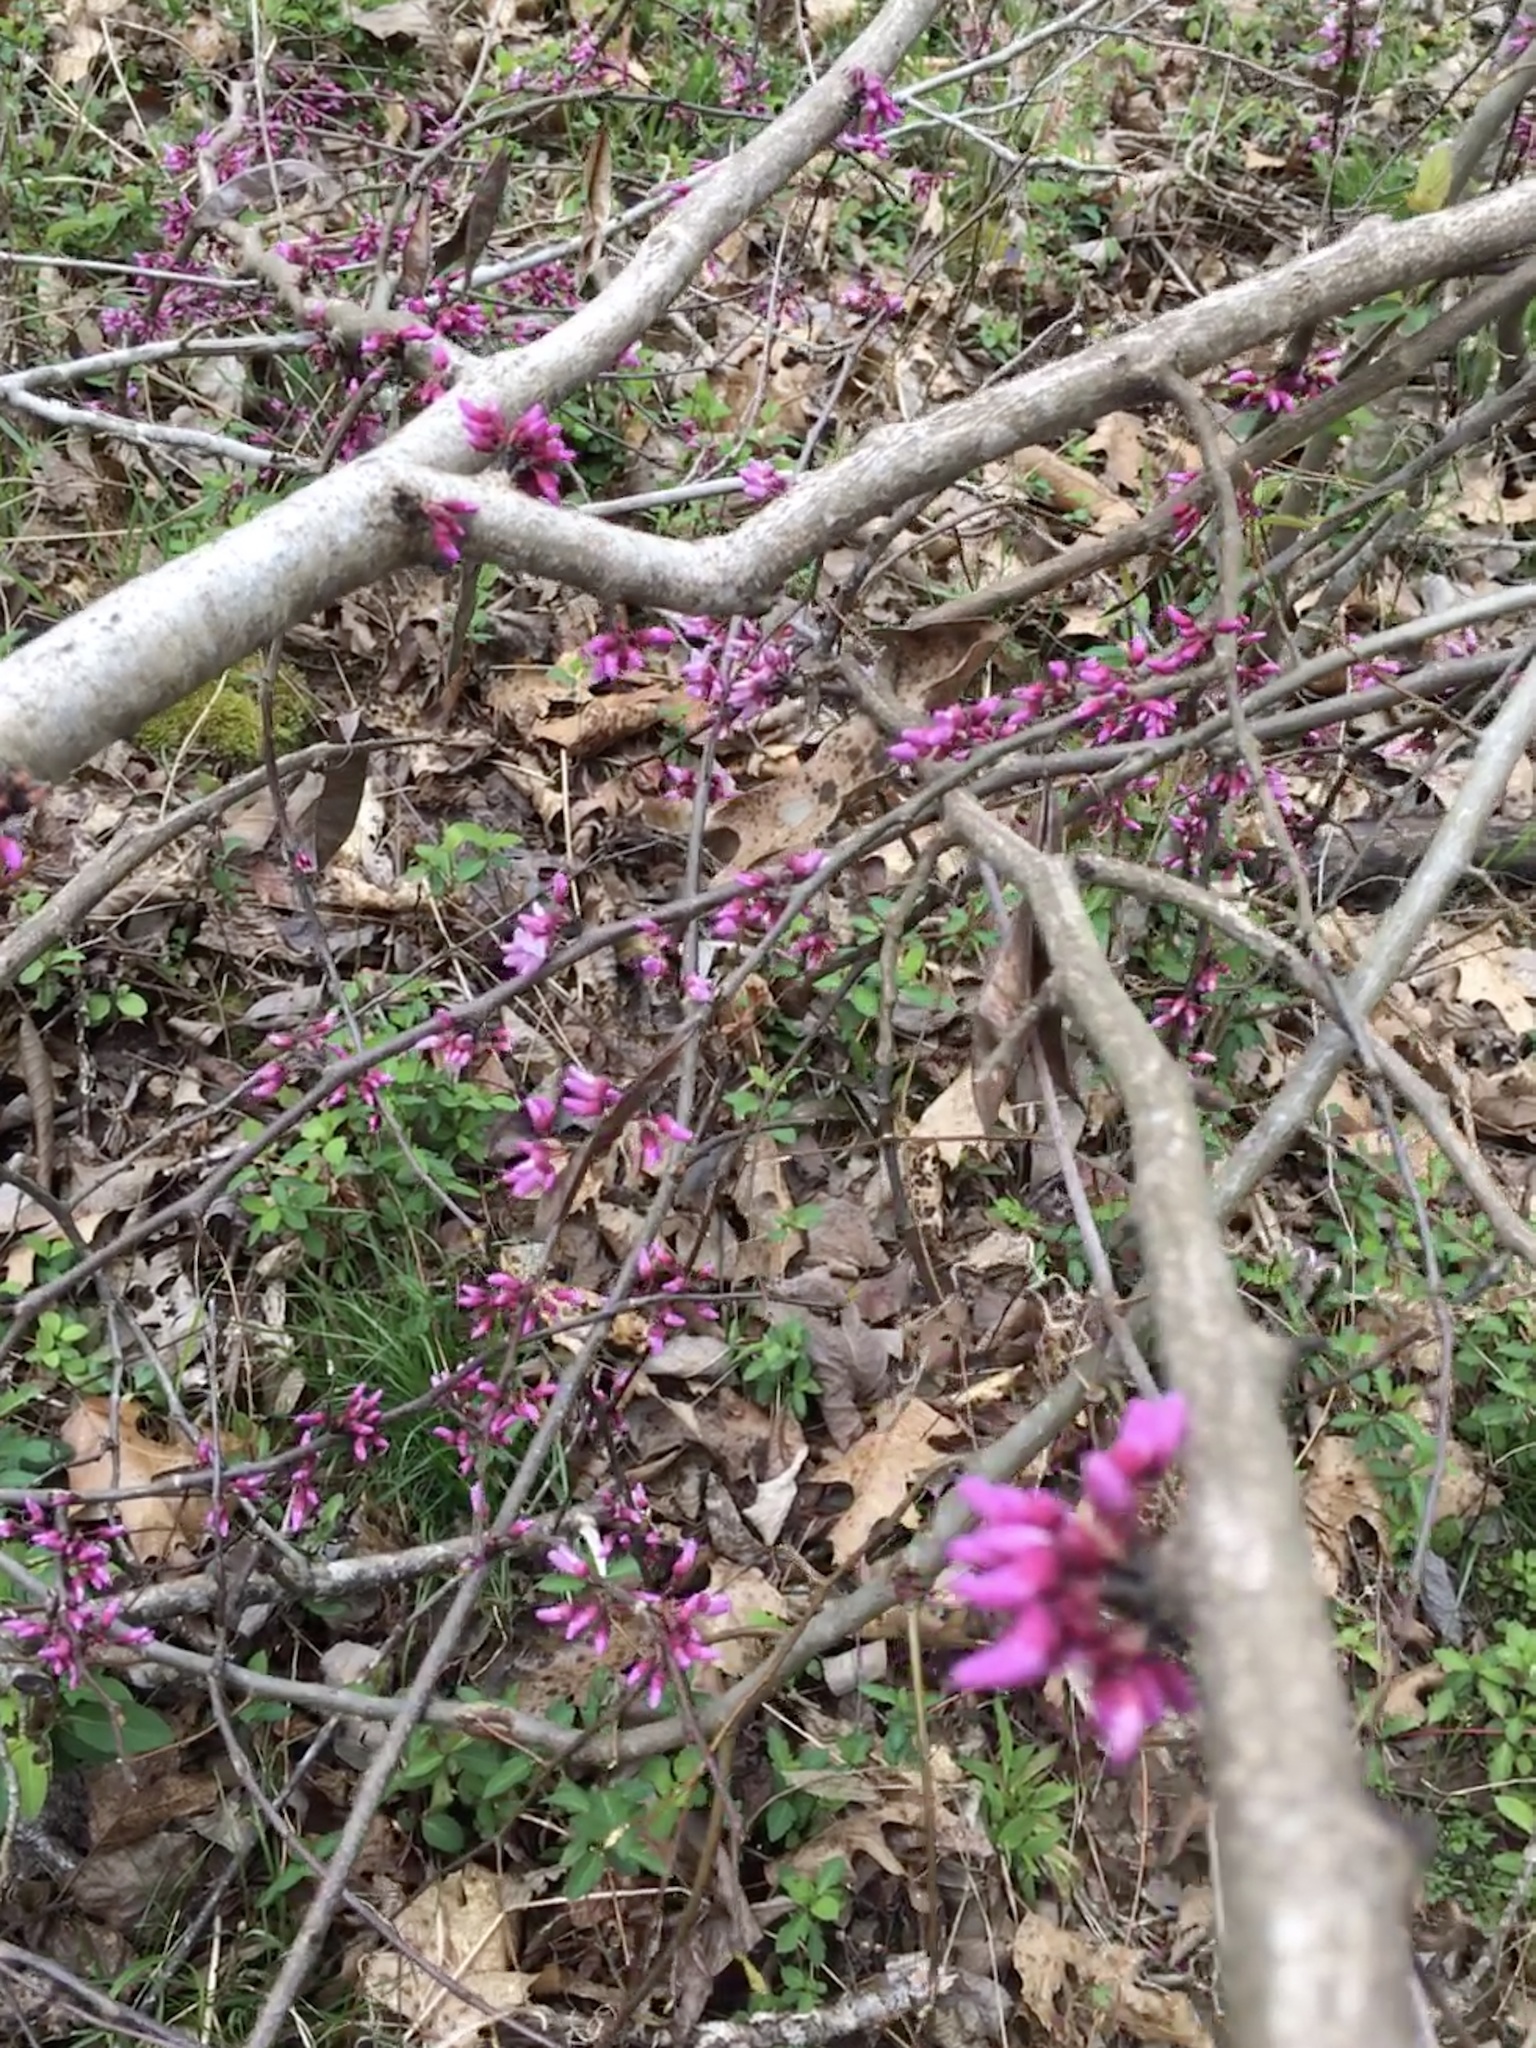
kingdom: Plantae
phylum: Tracheophyta
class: Magnoliopsida
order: Fabales
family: Fabaceae
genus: Cercis
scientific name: Cercis canadensis
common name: Eastern redbud
